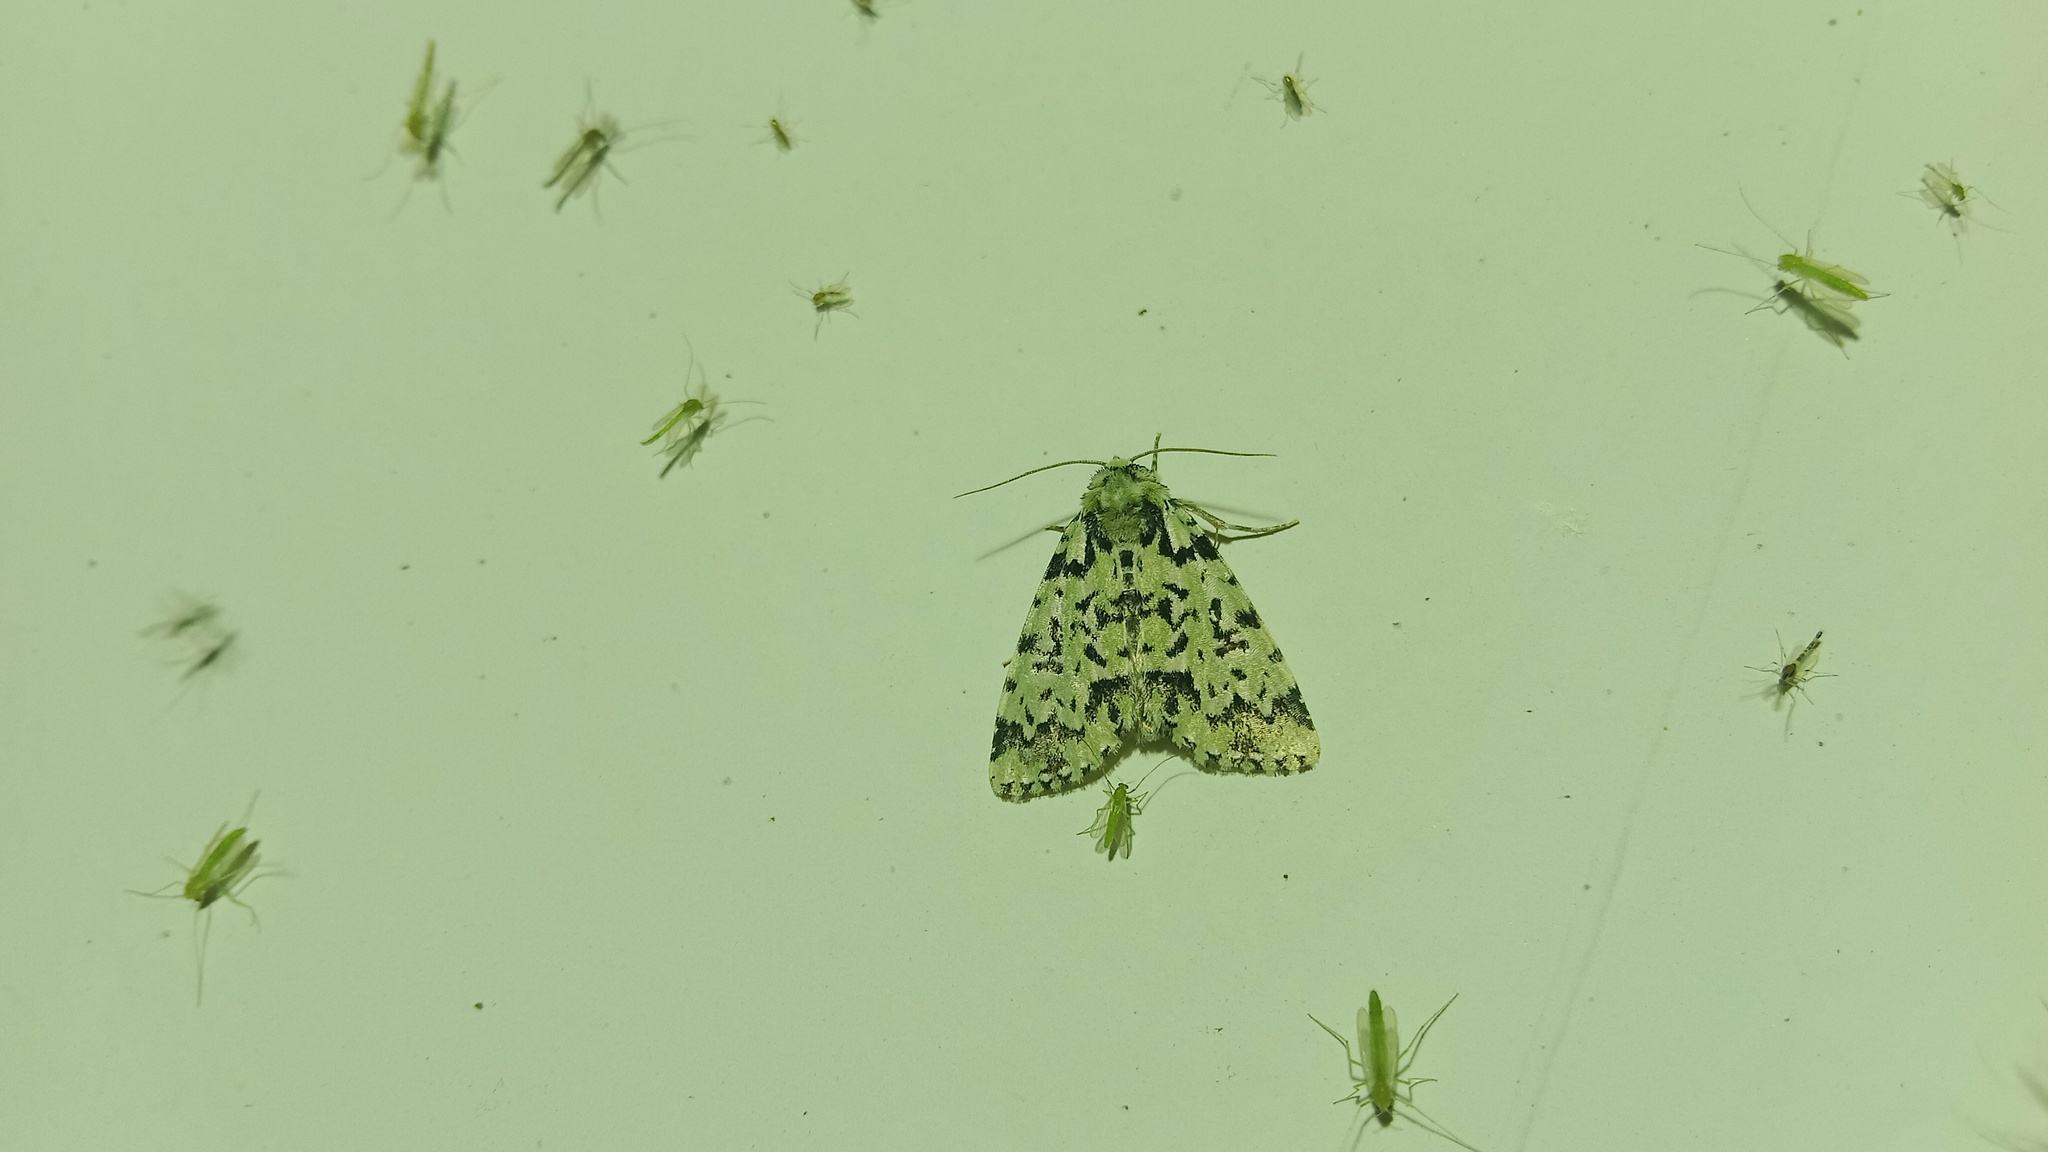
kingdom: Animalia
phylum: Arthropoda
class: Insecta
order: Lepidoptera
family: Noctuidae
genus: Moma
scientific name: Moma alpium
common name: Scarce merveille du jour
